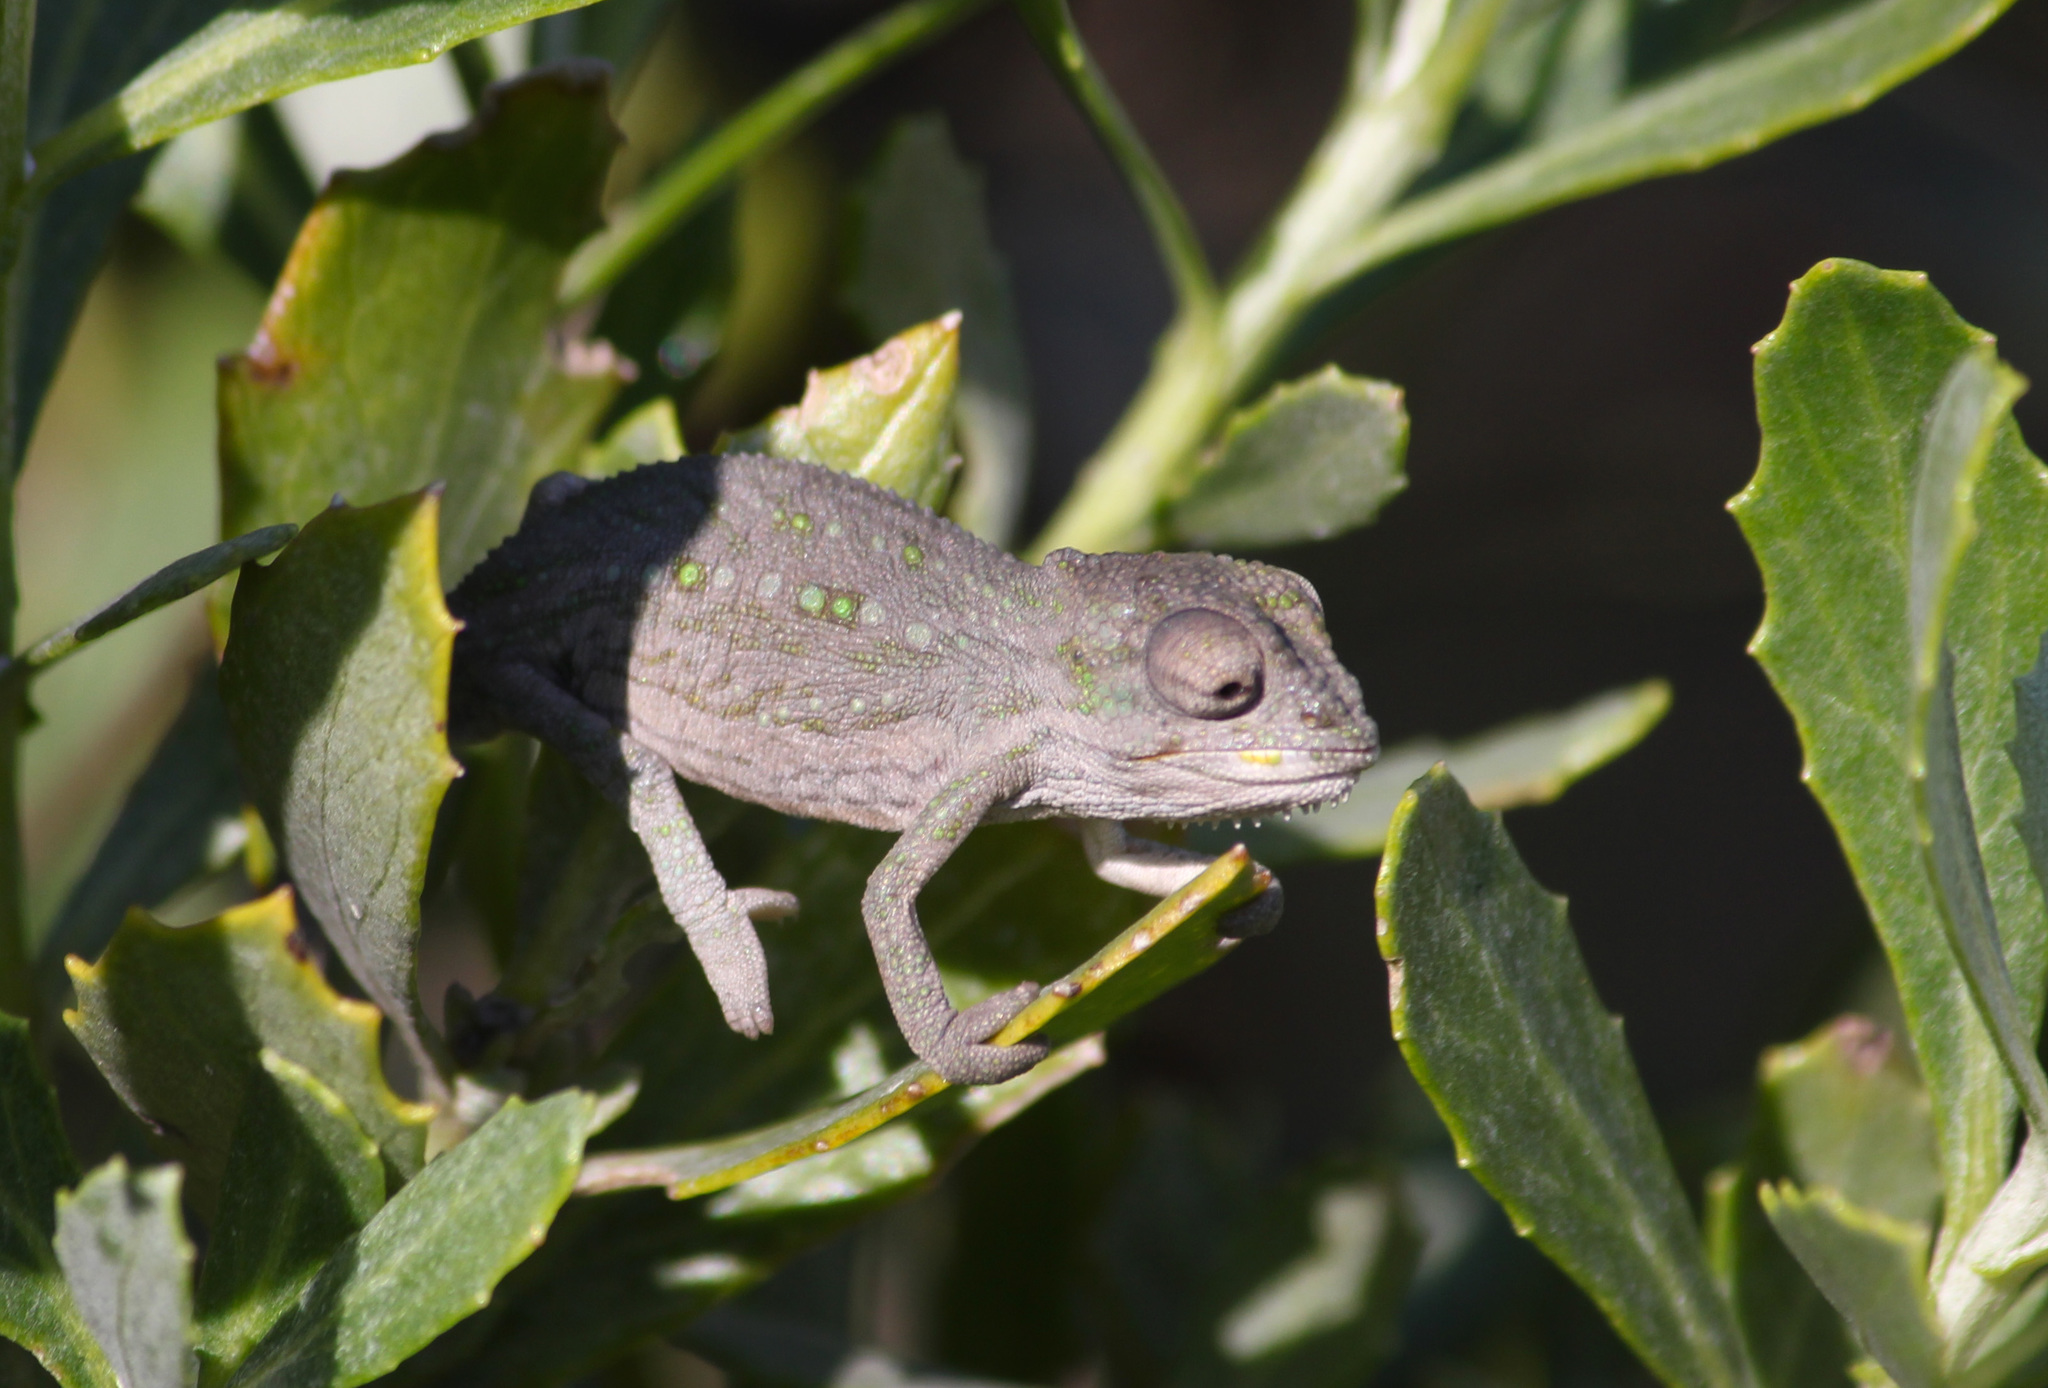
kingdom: Animalia
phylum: Chordata
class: Squamata
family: Chamaeleonidae
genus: Bradypodion
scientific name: Bradypodion pumilum
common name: Cape dwarf chameleon
